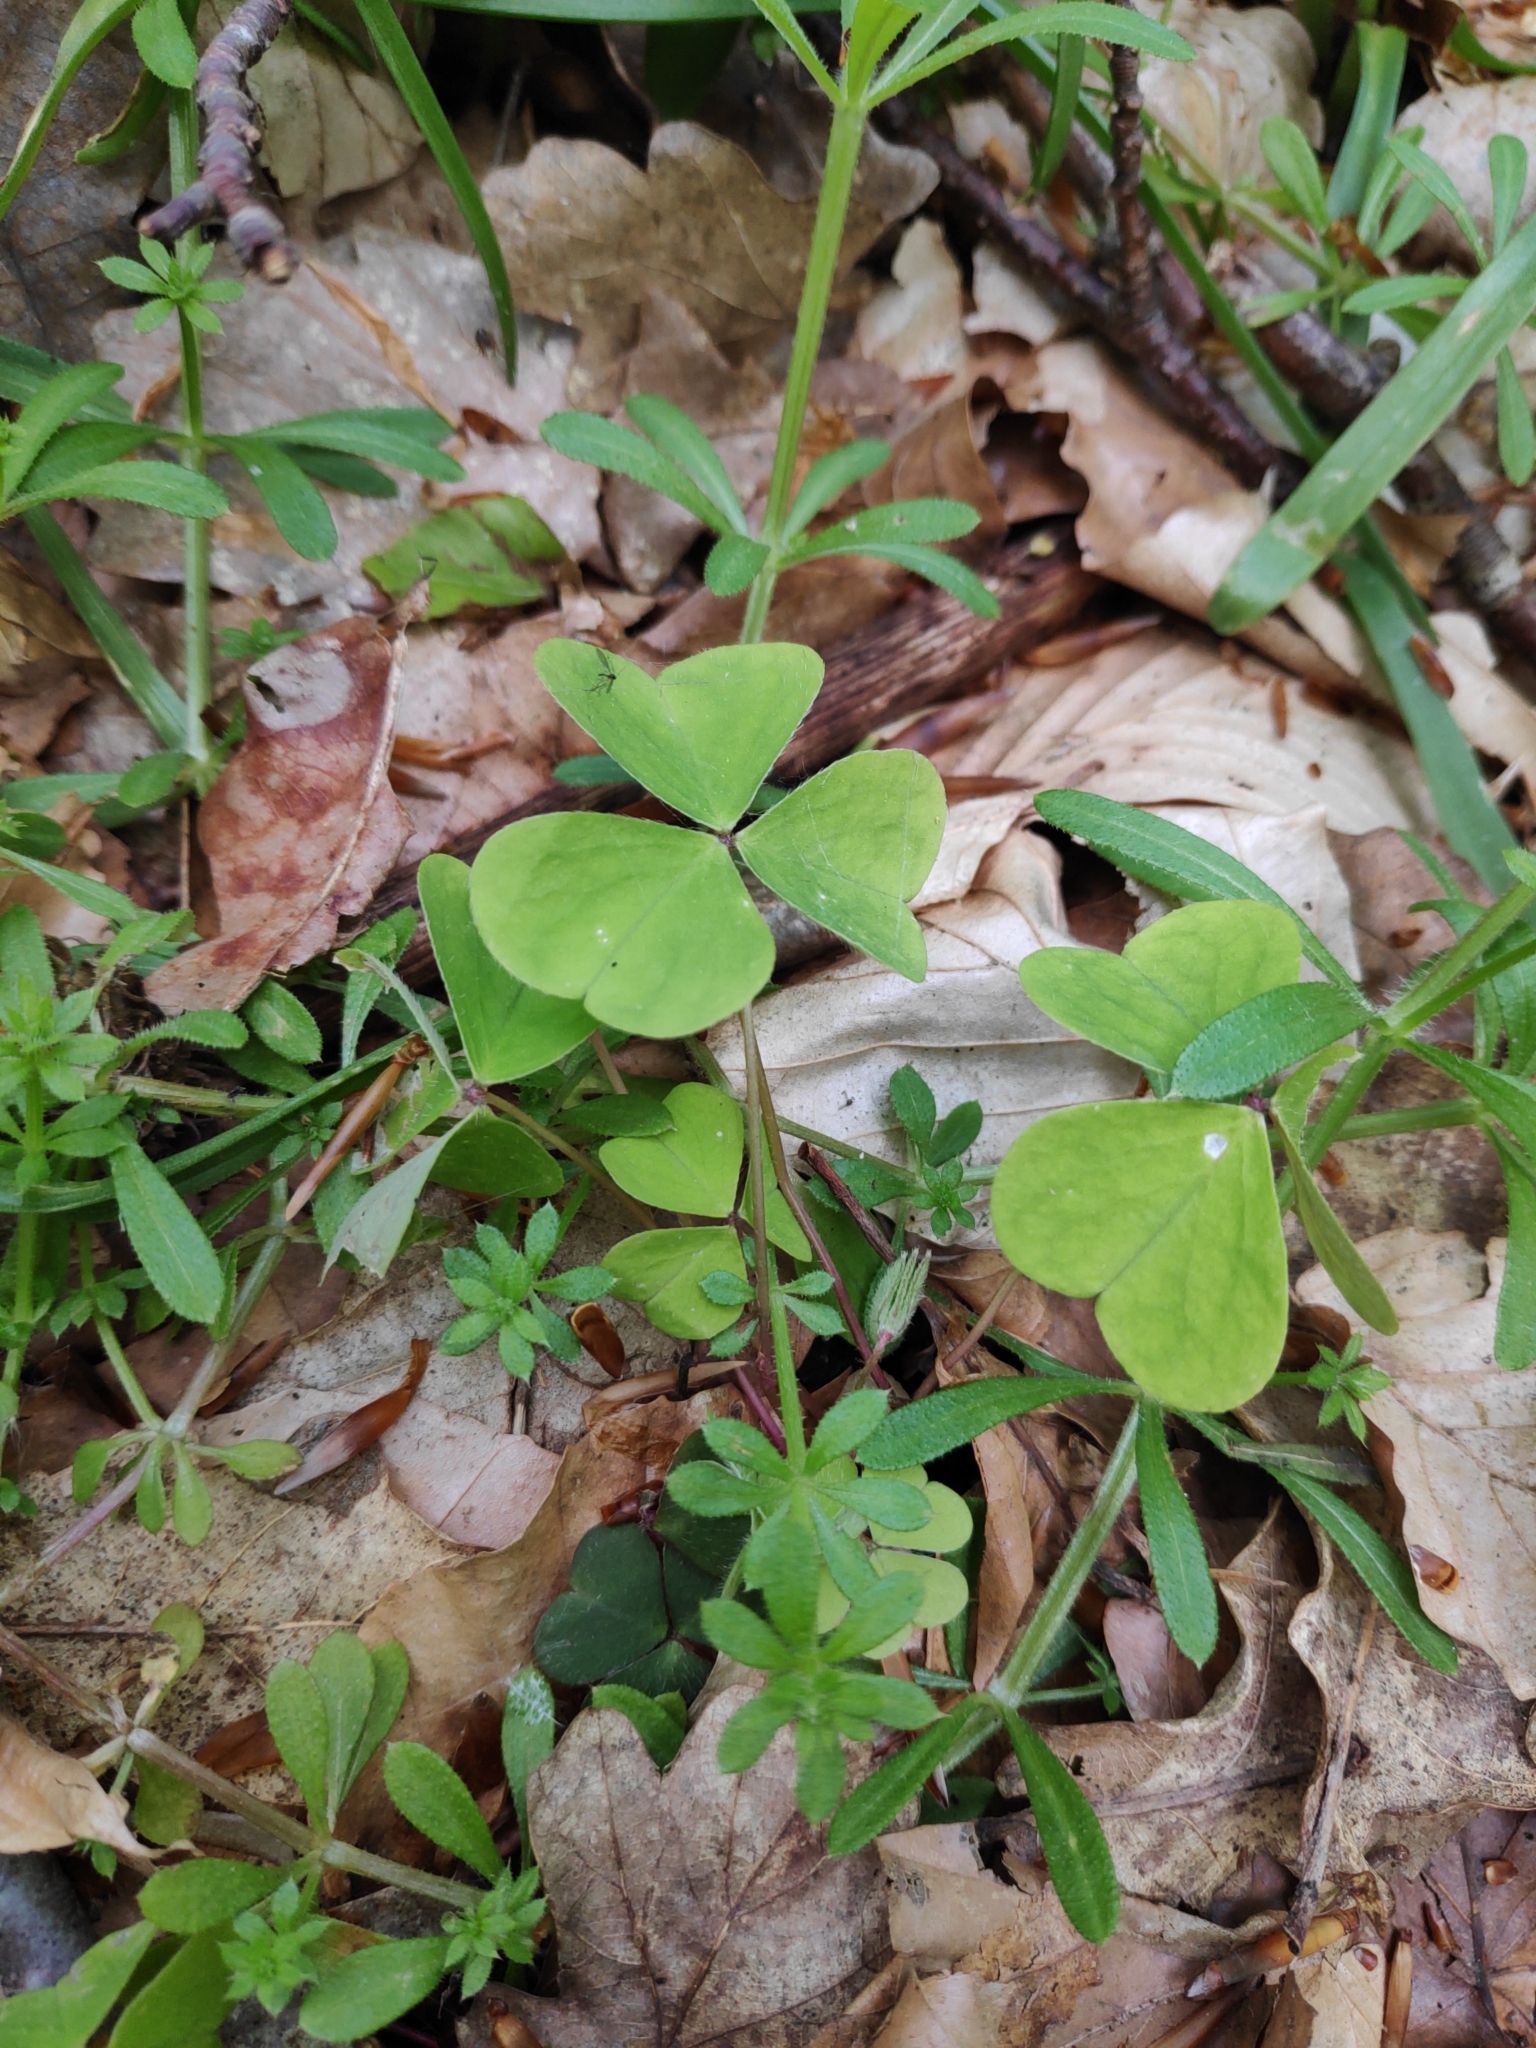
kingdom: Plantae
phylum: Tracheophyta
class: Magnoliopsida
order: Oxalidales
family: Oxalidaceae
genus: Oxalis
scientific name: Oxalis acetosella
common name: Wood-sorrel
